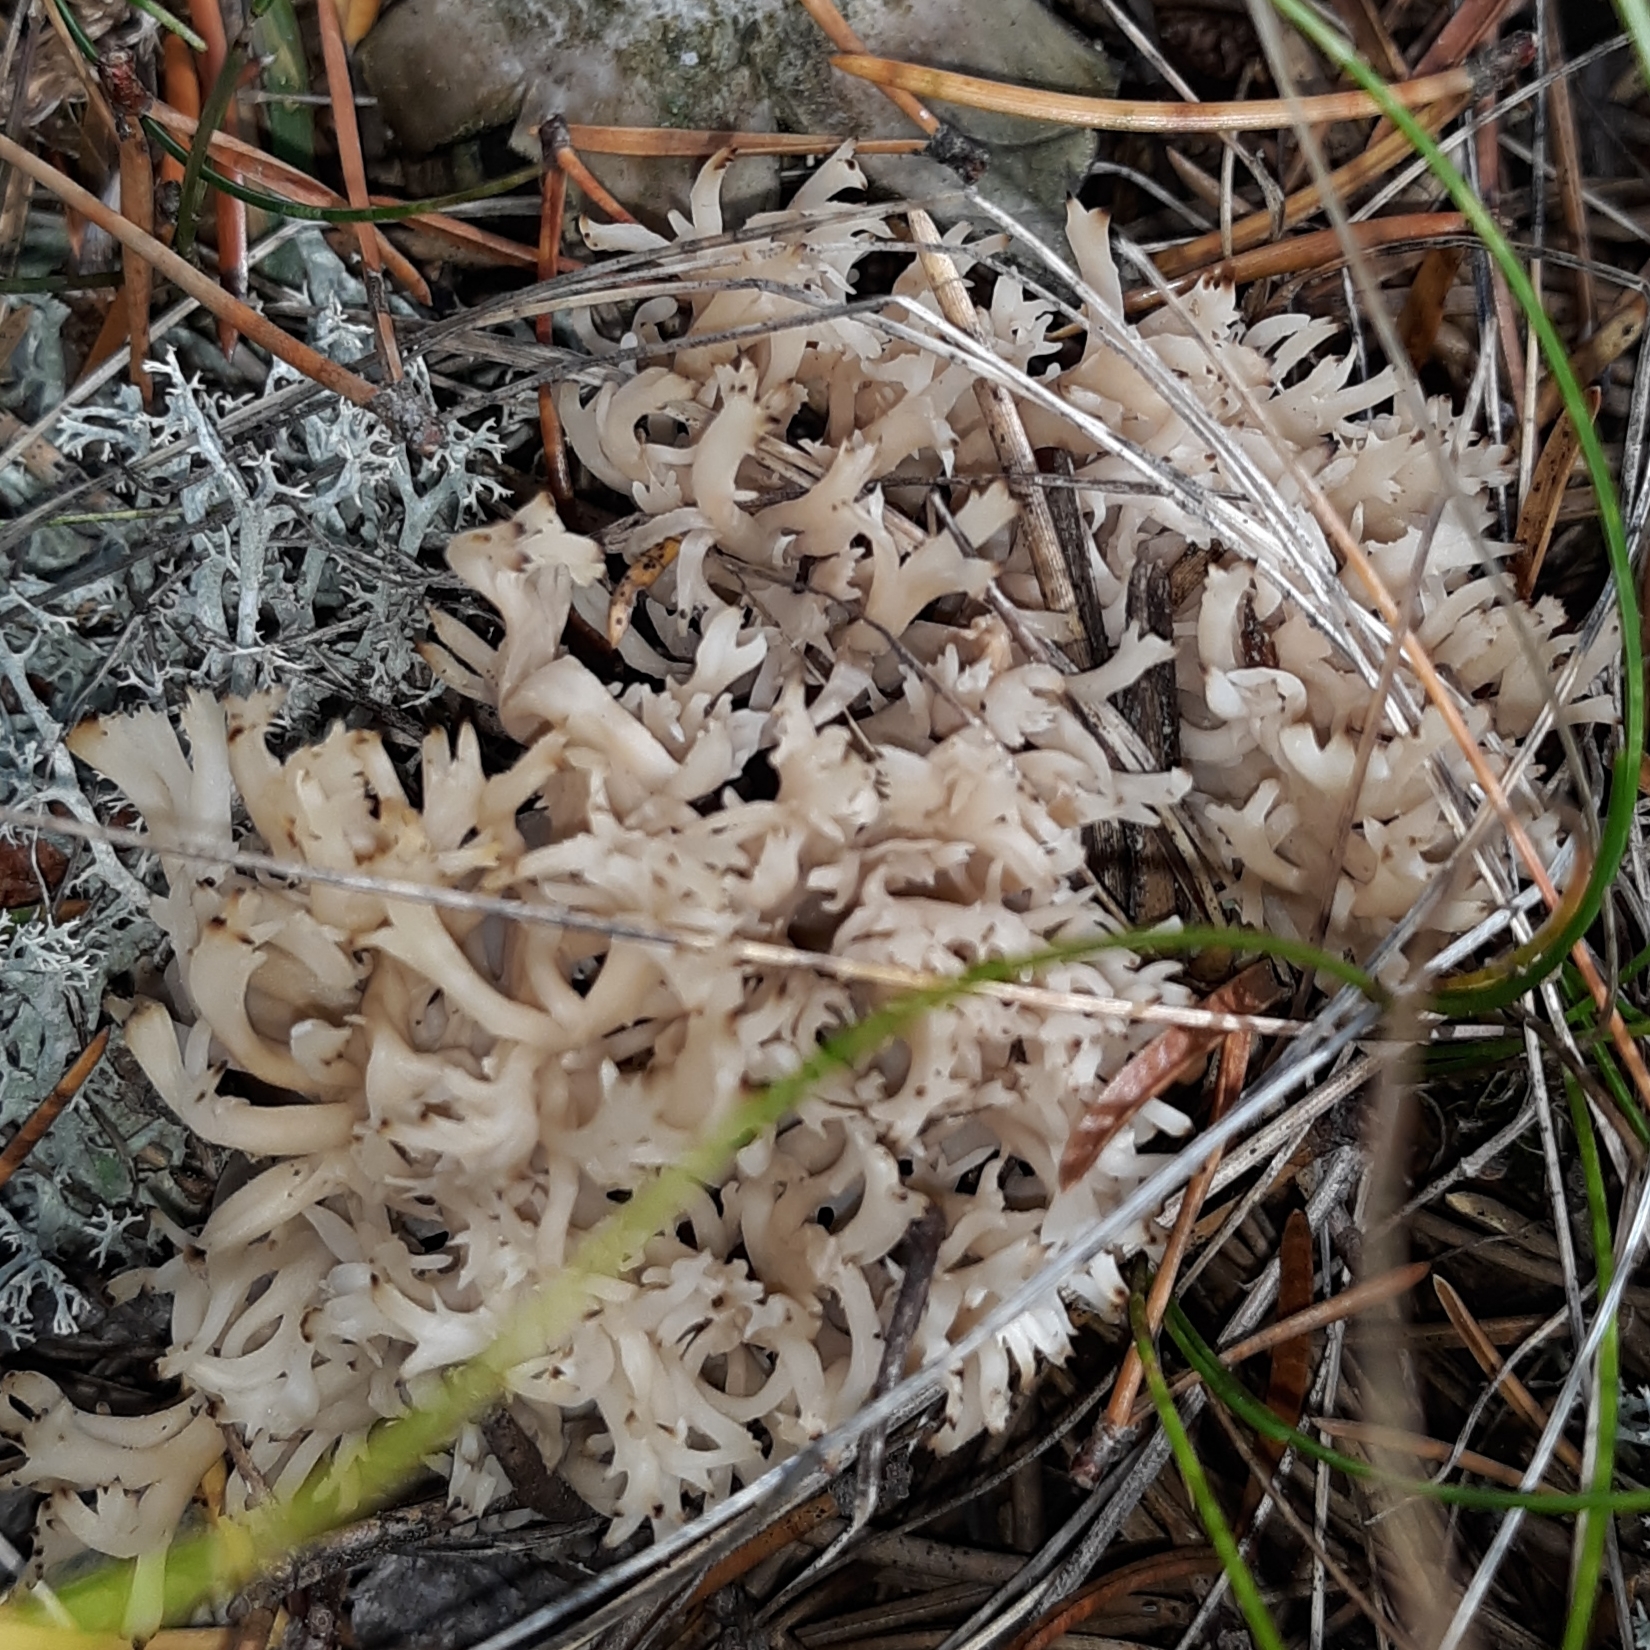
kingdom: Fungi
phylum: Basidiomycota
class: Agaricomycetes
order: Cantharellales
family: Hydnaceae
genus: Clavulina
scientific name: Clavulina coralloides
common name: Crested coral
